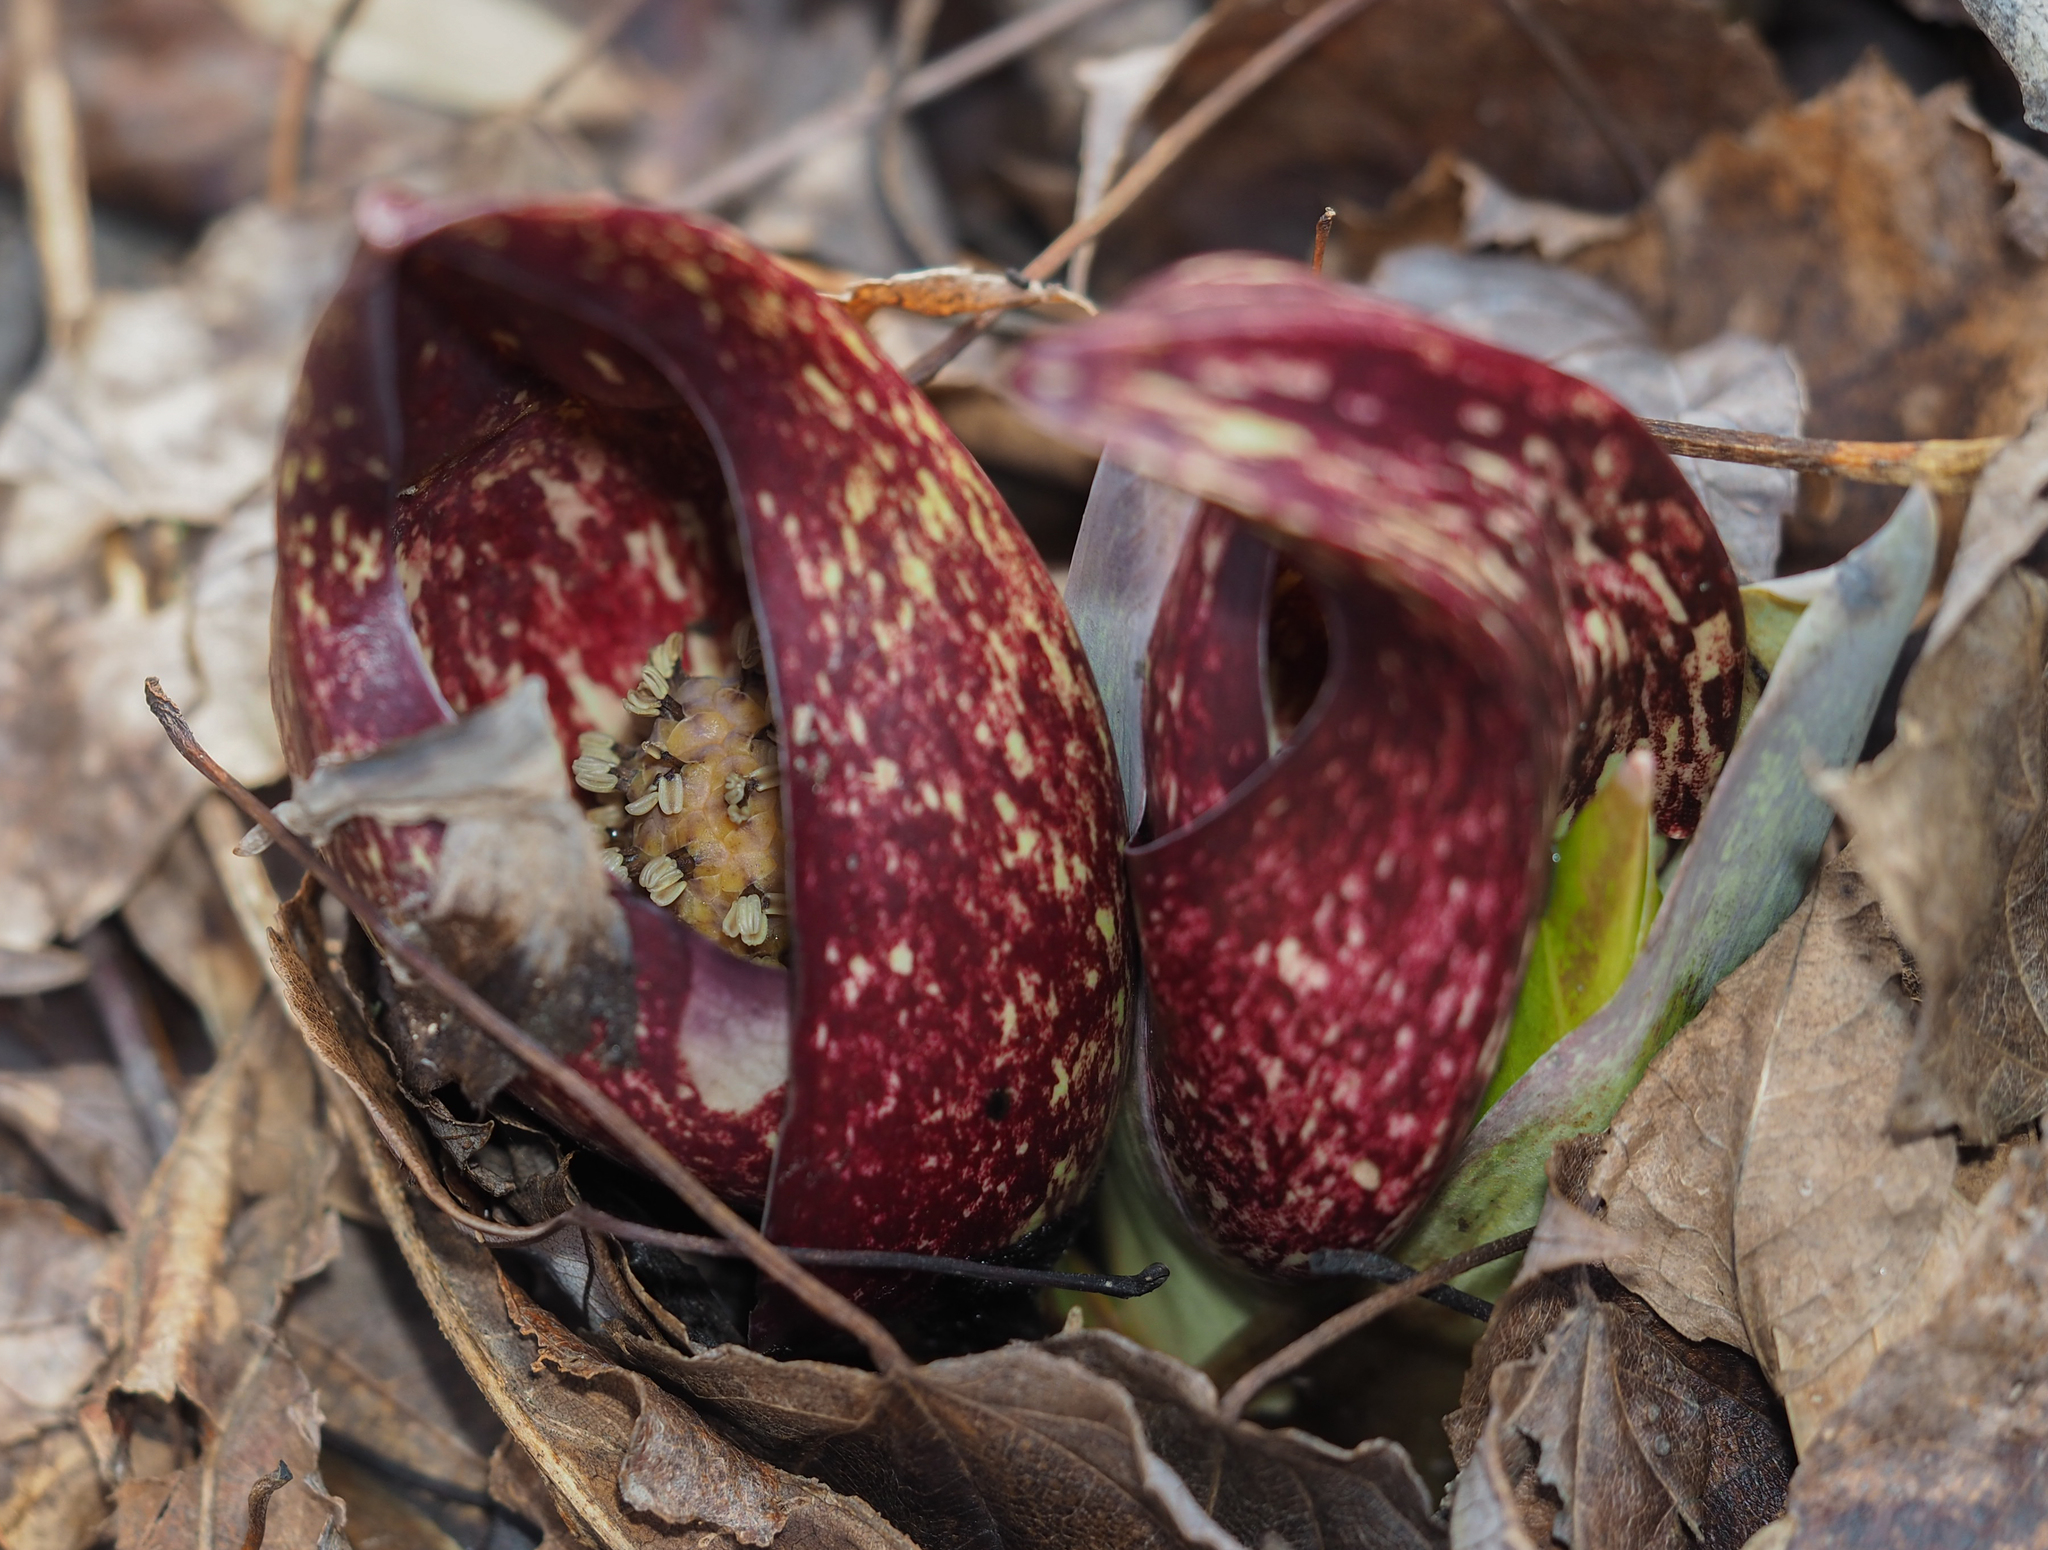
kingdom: Plantae
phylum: Tracheophyta
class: Liliopsida
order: Alismatales
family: Araceae
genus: Symplocarpus
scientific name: Symplocarpus foetidus
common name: Eastern skunk cabbage
